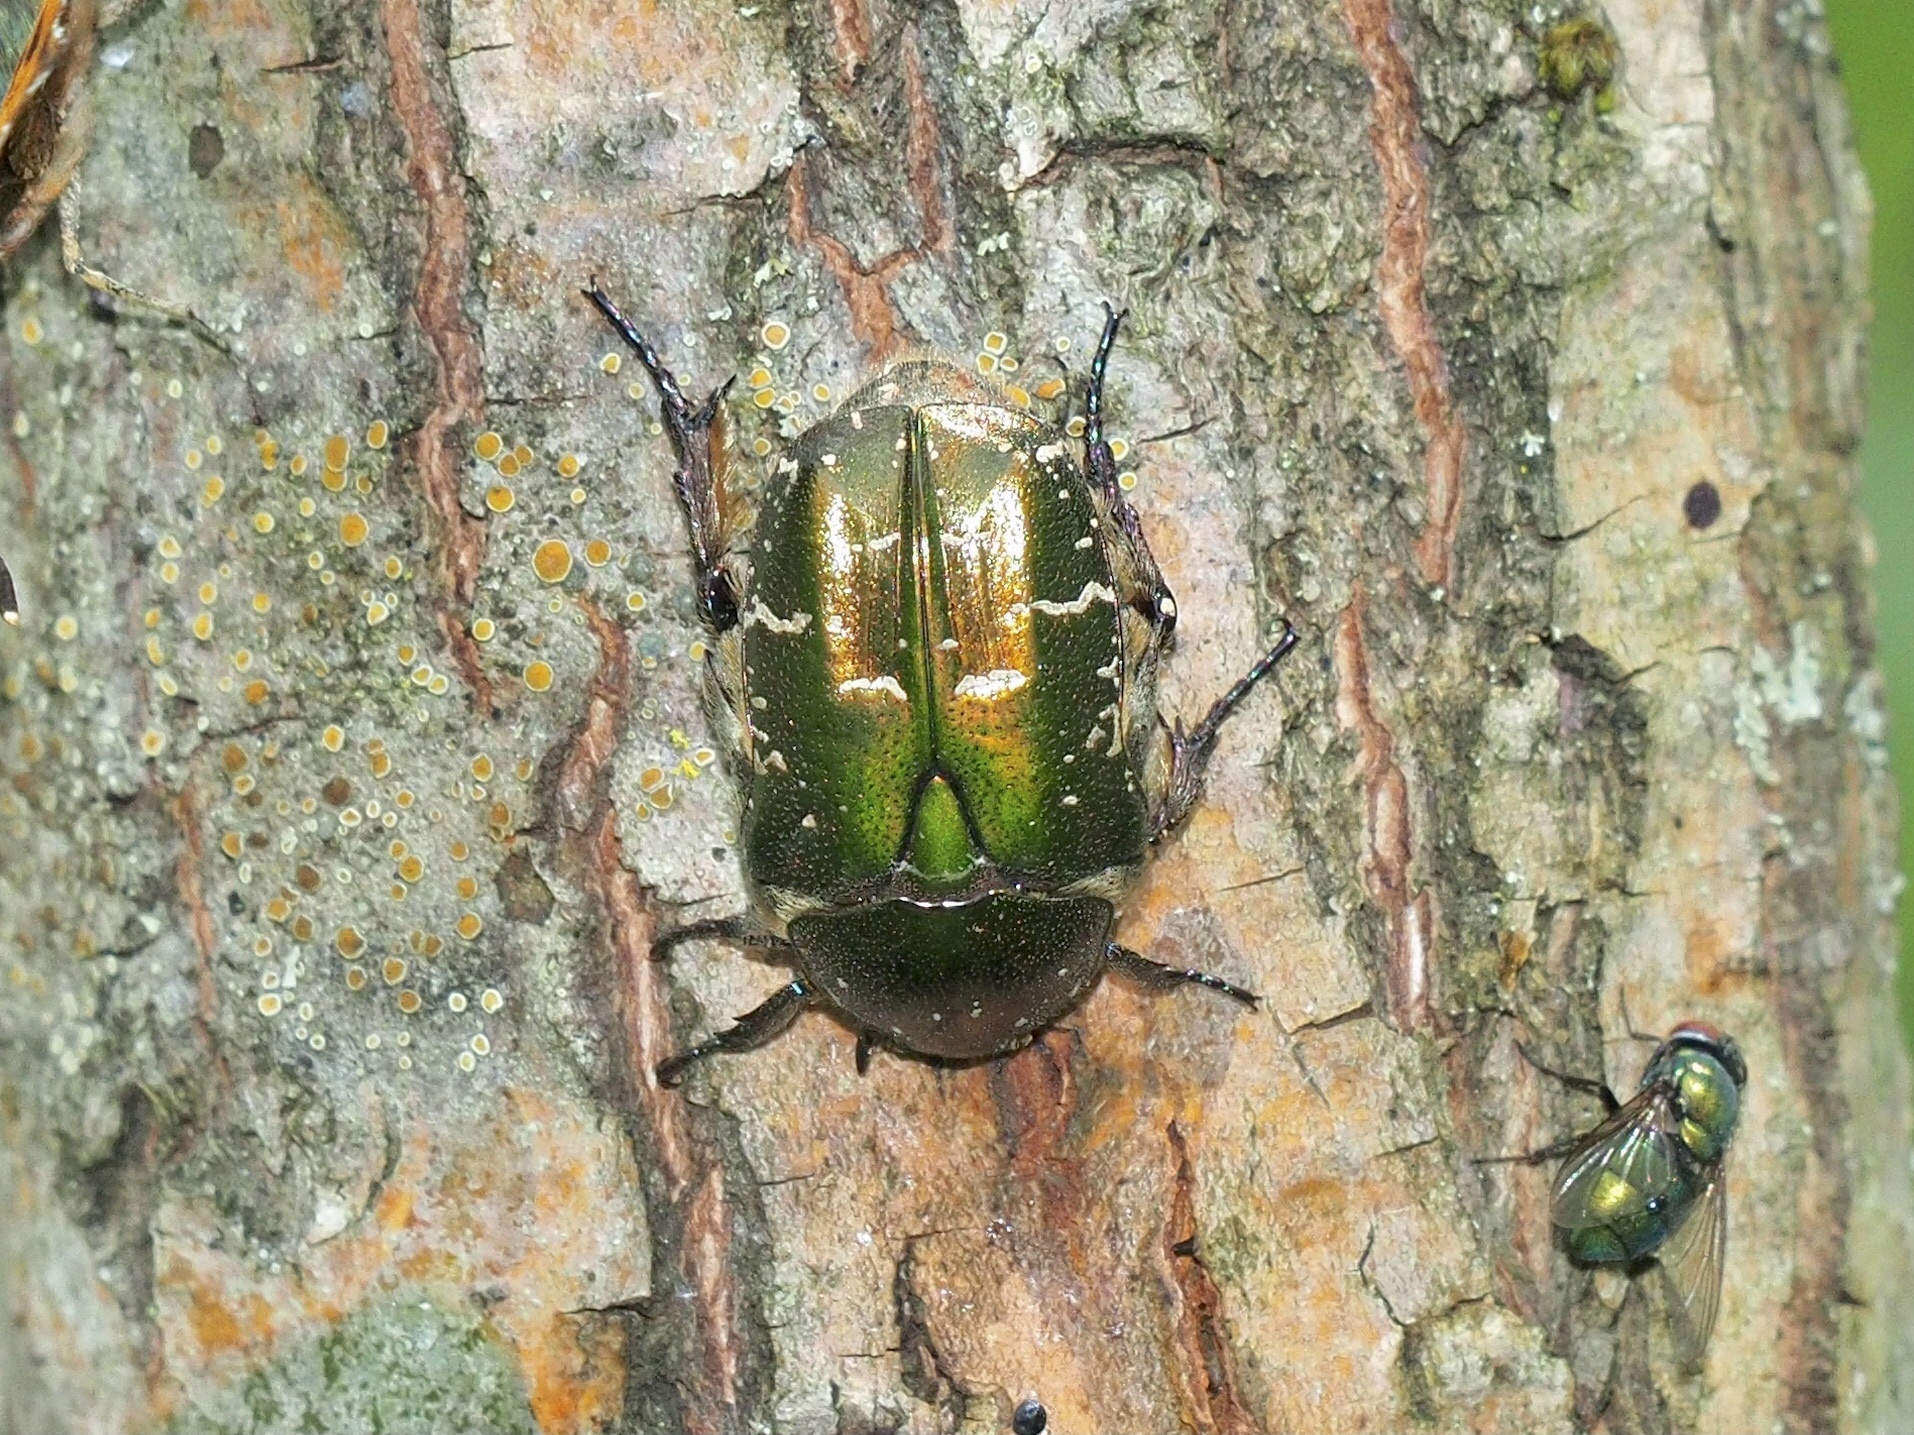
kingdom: Animalia
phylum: Arthropoda
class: Insecta
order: Coleoptera
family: Scarabaeidae
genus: Protaetia
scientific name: Protaetia cuprea
